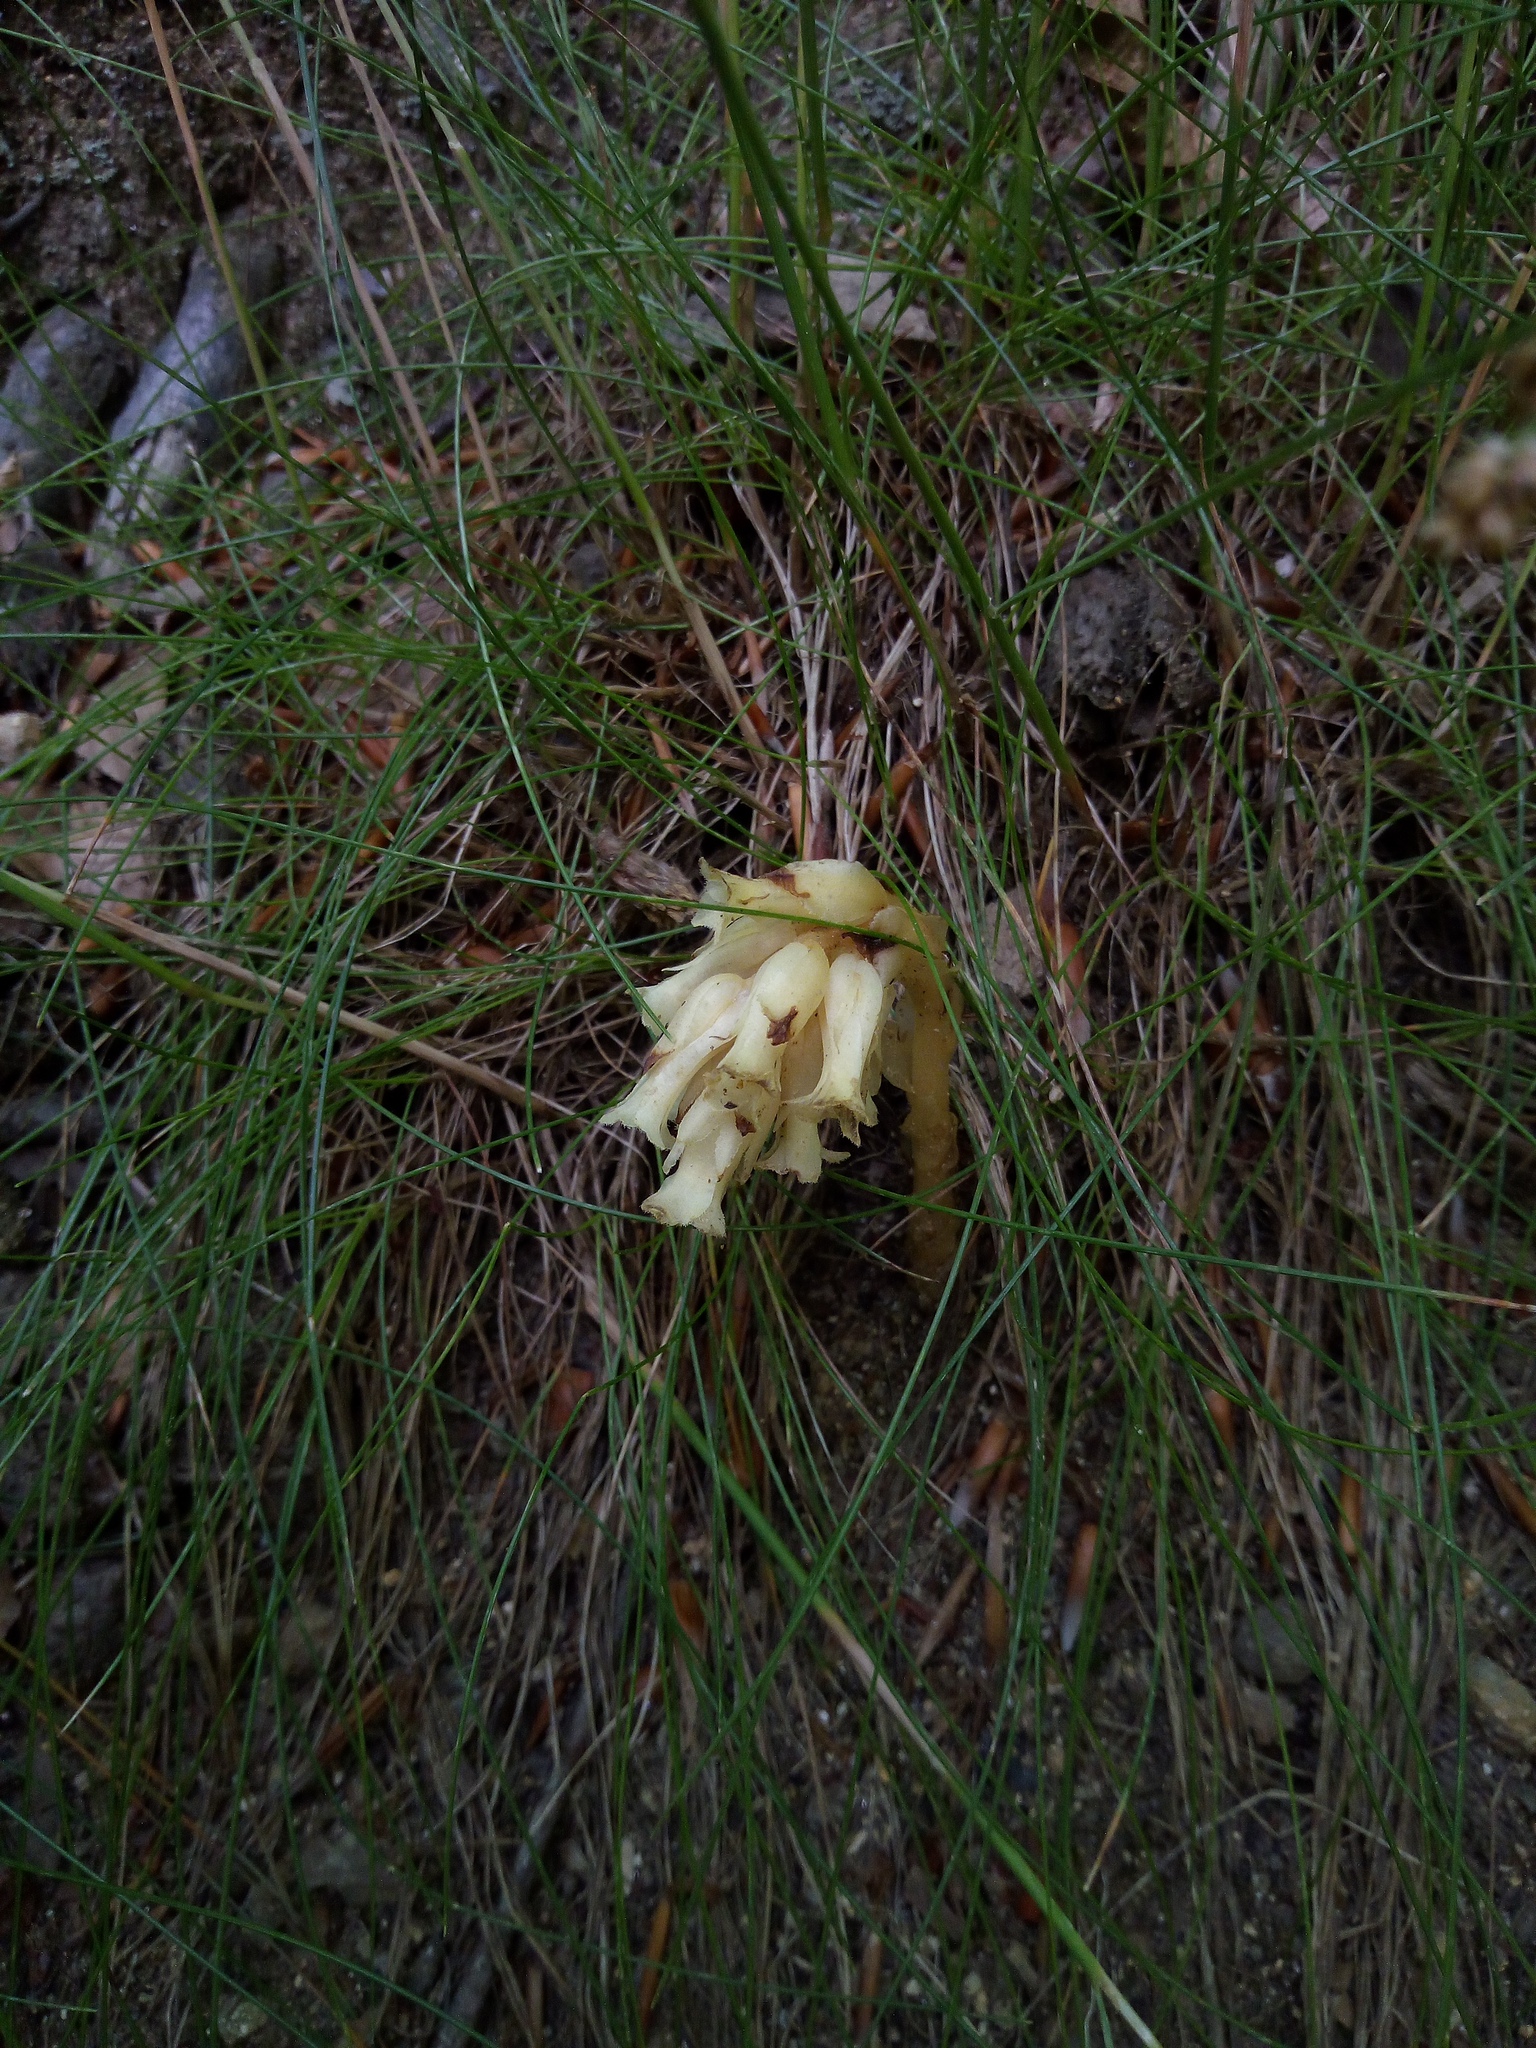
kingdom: Plantae
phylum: Tracheophyta
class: Magnoliopsida
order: Ericales
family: Ericaceae
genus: Hypopitys
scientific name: Hypopitys monotropa
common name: Yellow bird's-nest
